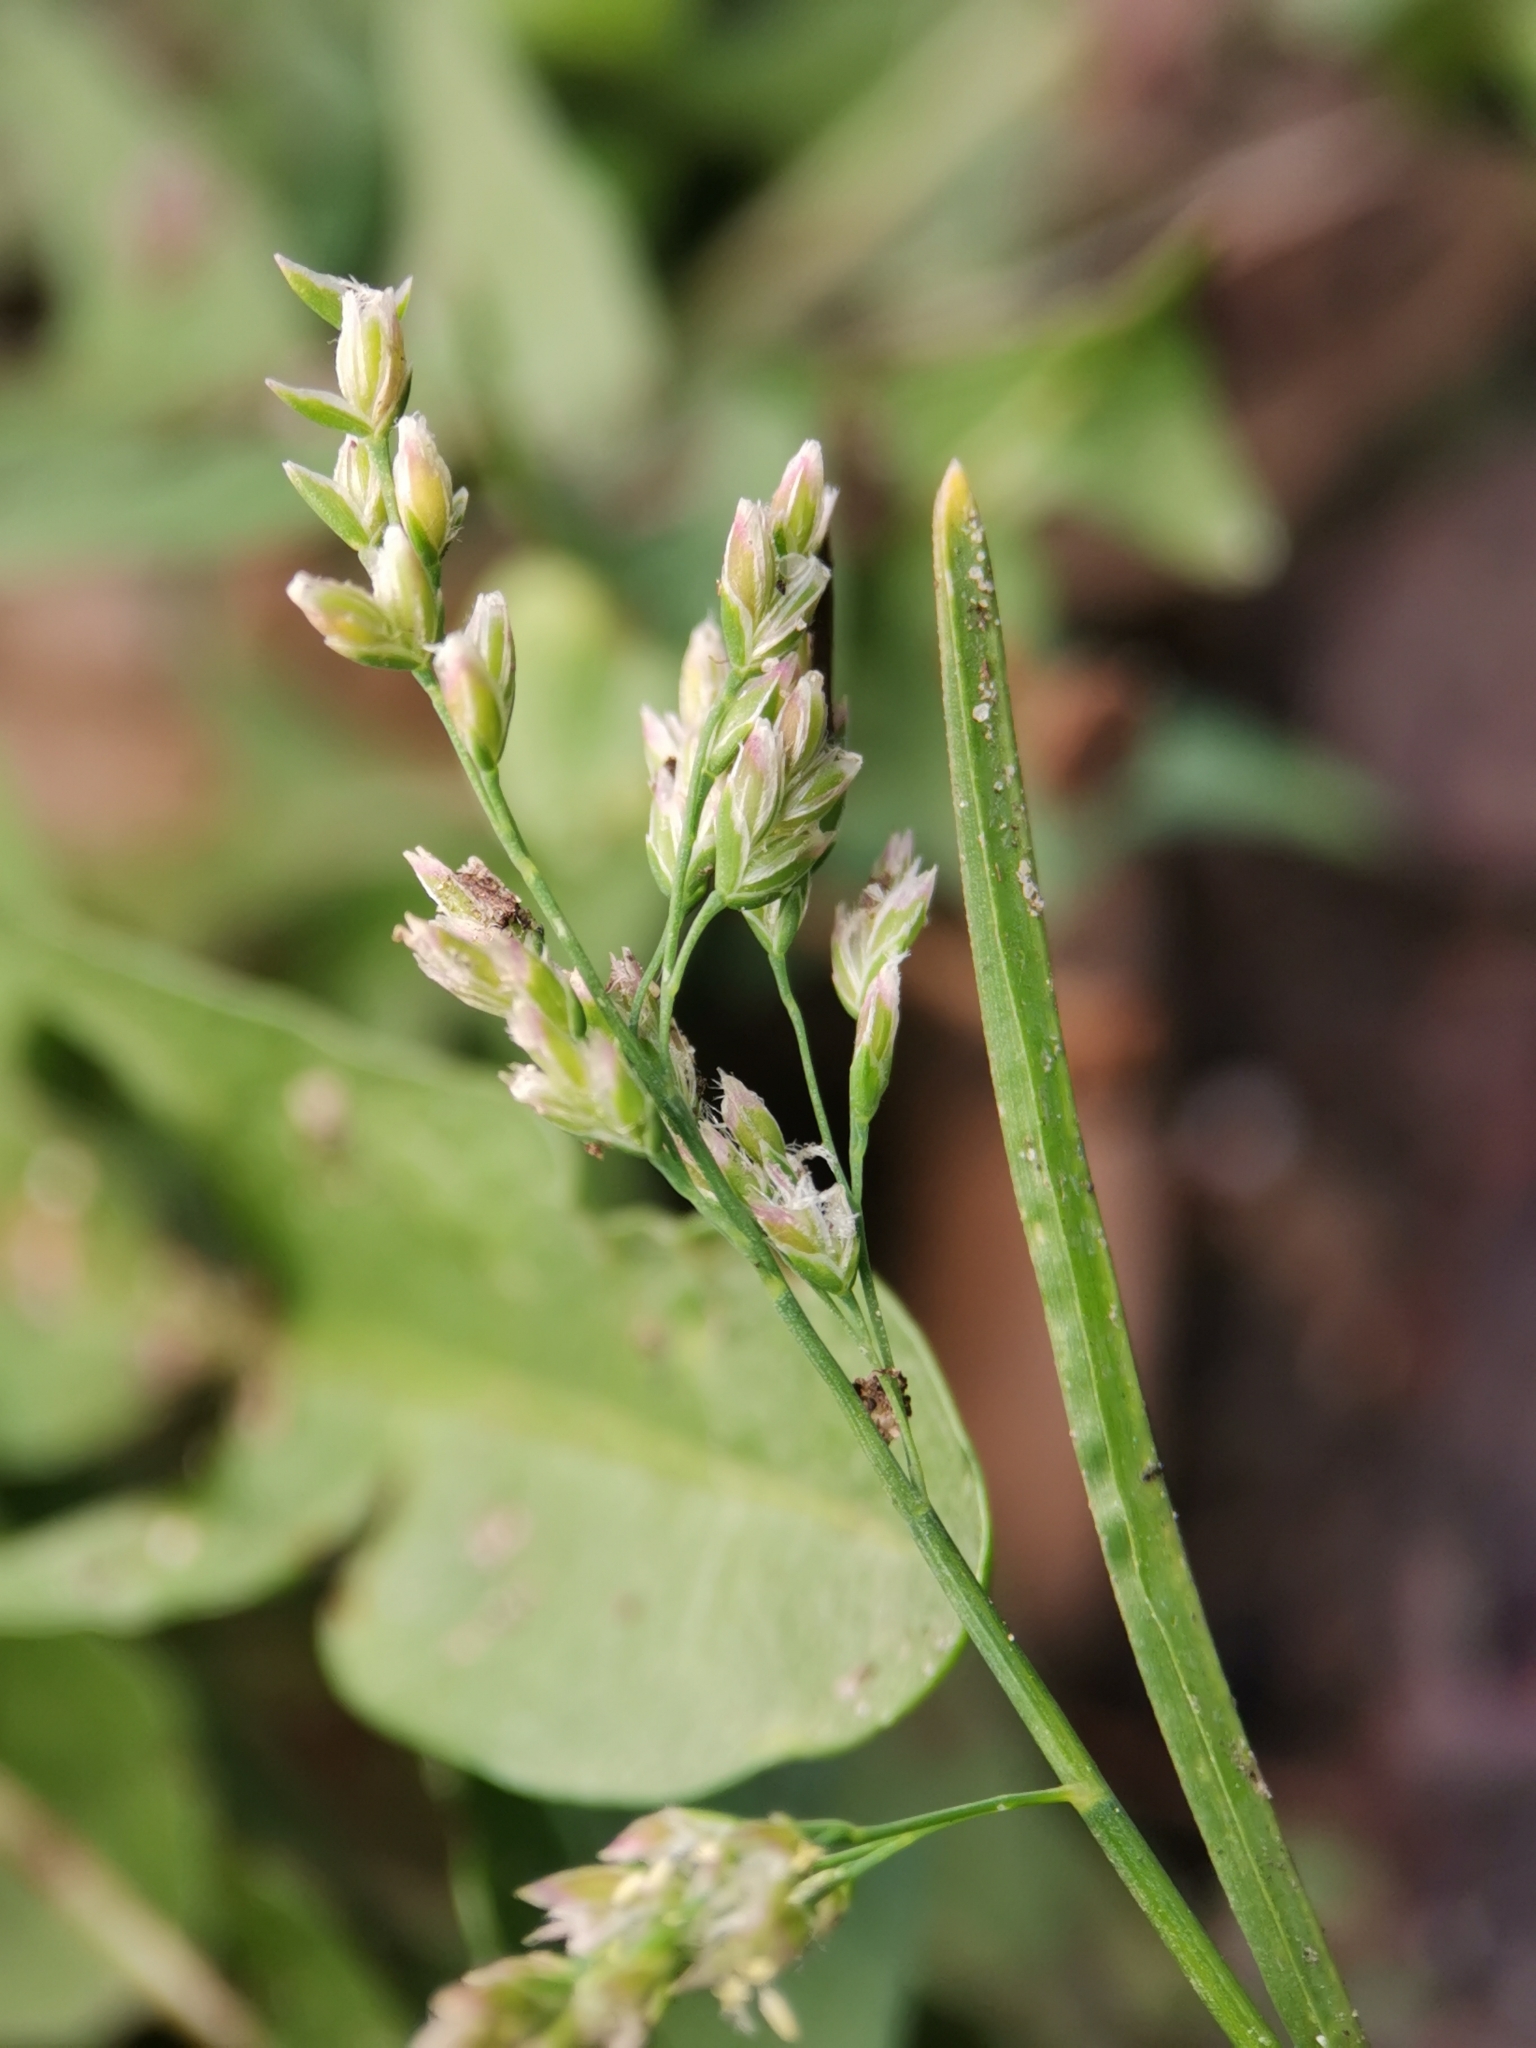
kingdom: Plantae
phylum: Tracheophyta
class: Liliopsida
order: Poales
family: Poaceae
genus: Poa
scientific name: Poa annua
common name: Annual bluegrass
